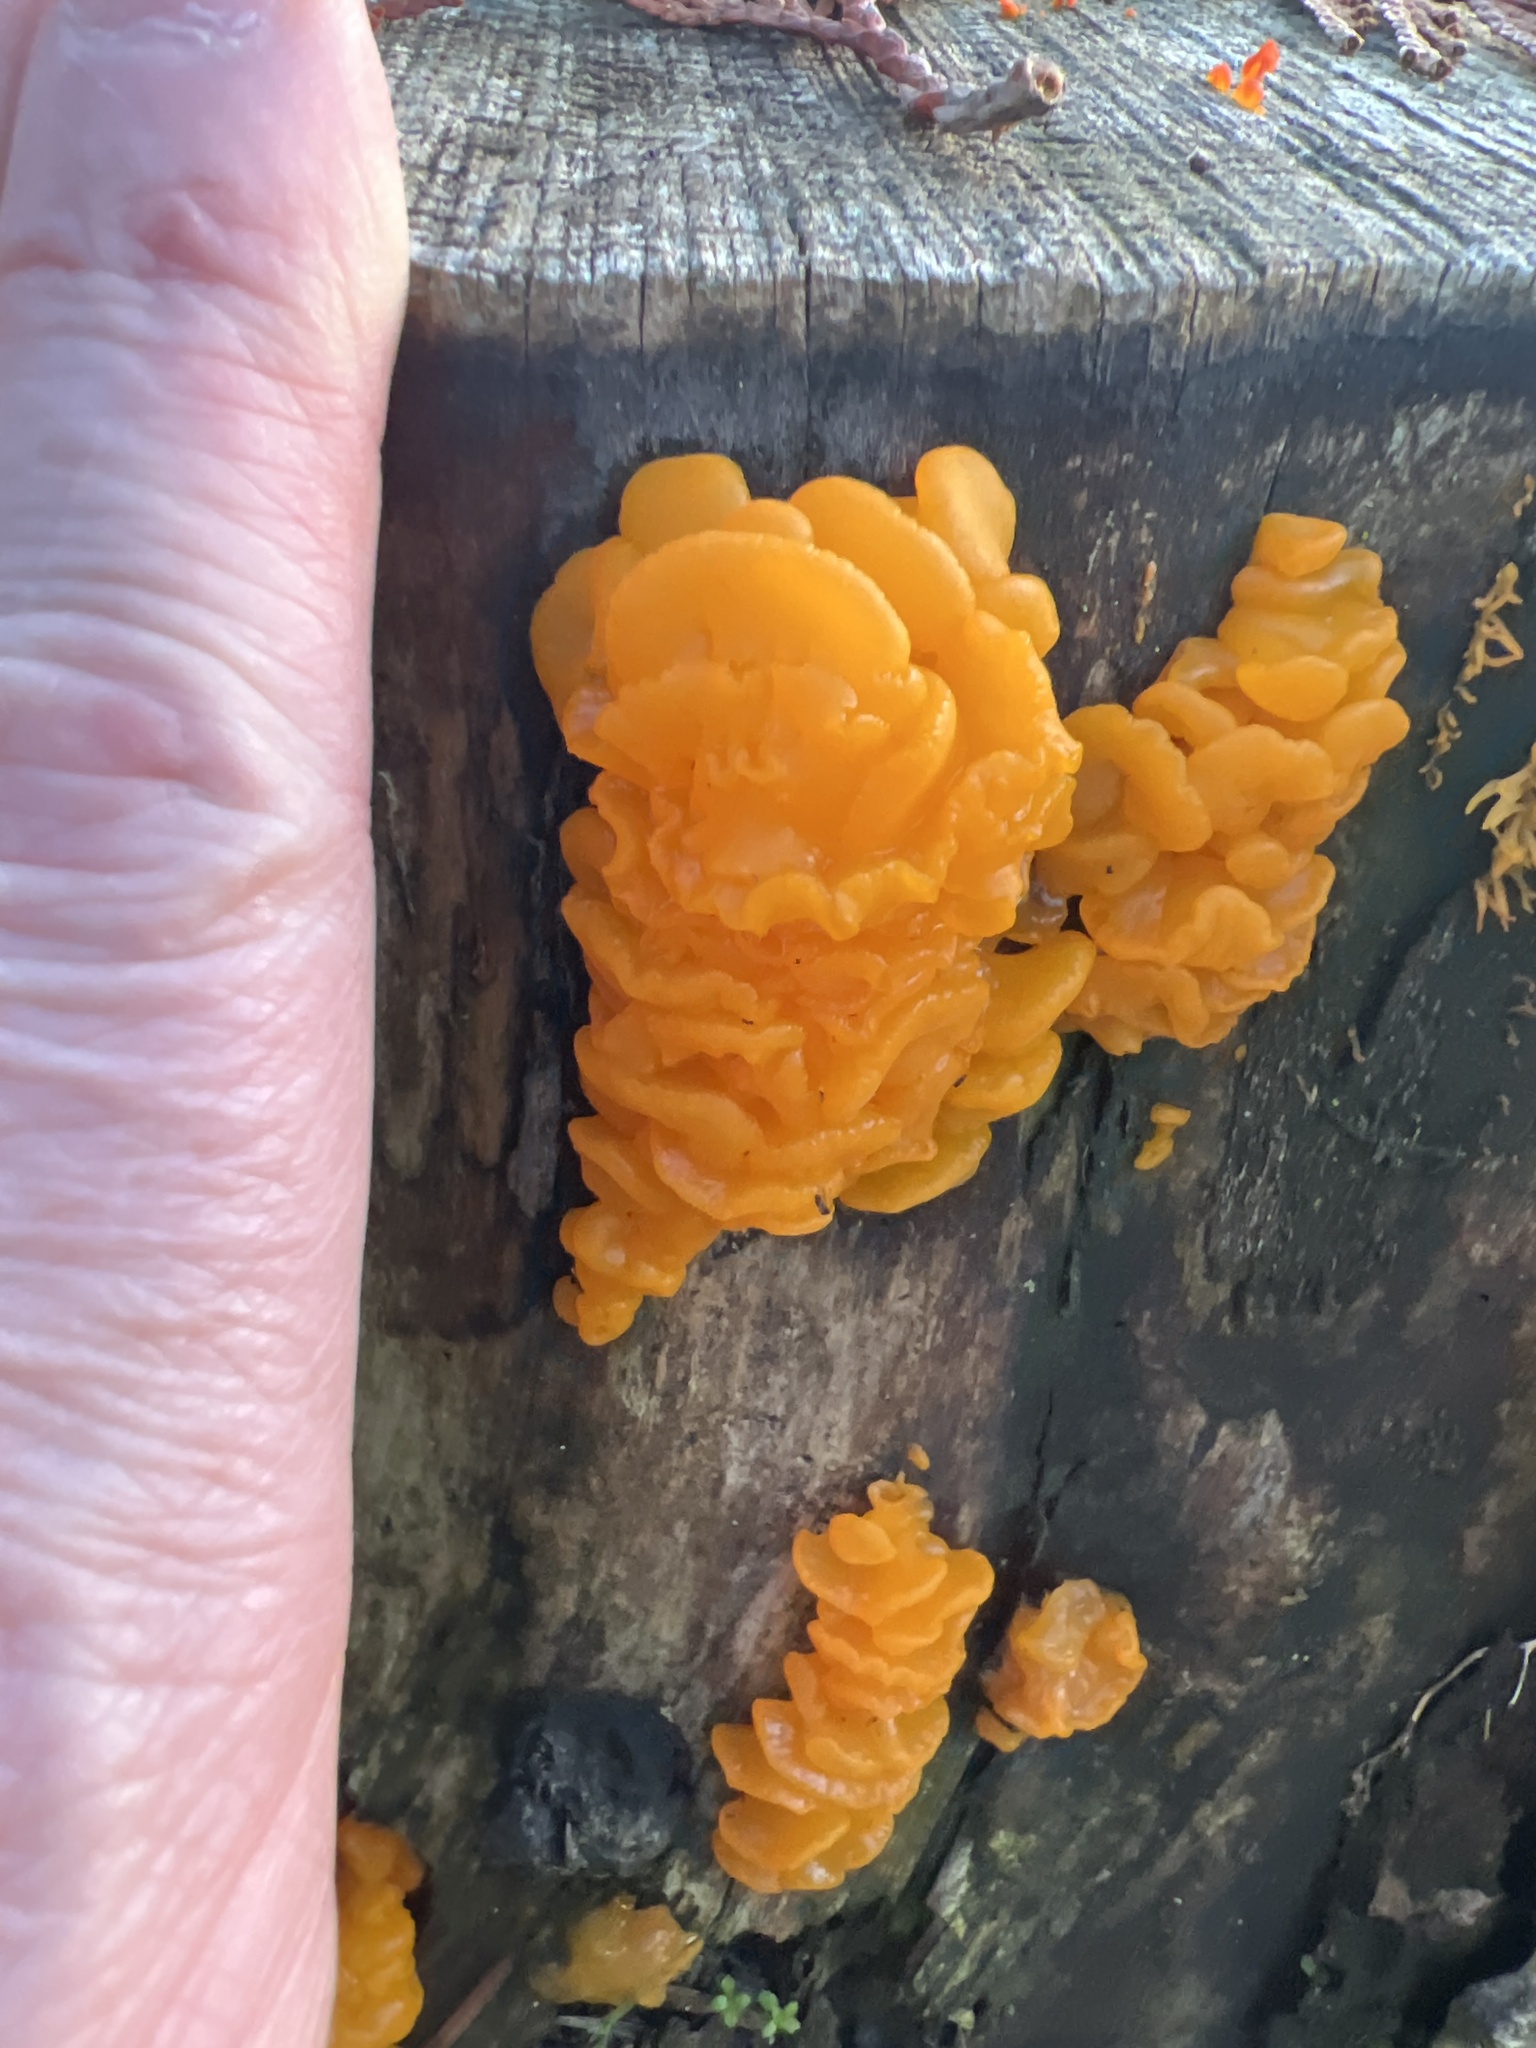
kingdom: Fungi
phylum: Basidiomycota
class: Dacrymycetes
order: Dacrymycetales
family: Dacrymycetaceae
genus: Dacrymyces
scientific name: Dacrymyces chrysospermus
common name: Orange jelly spot
